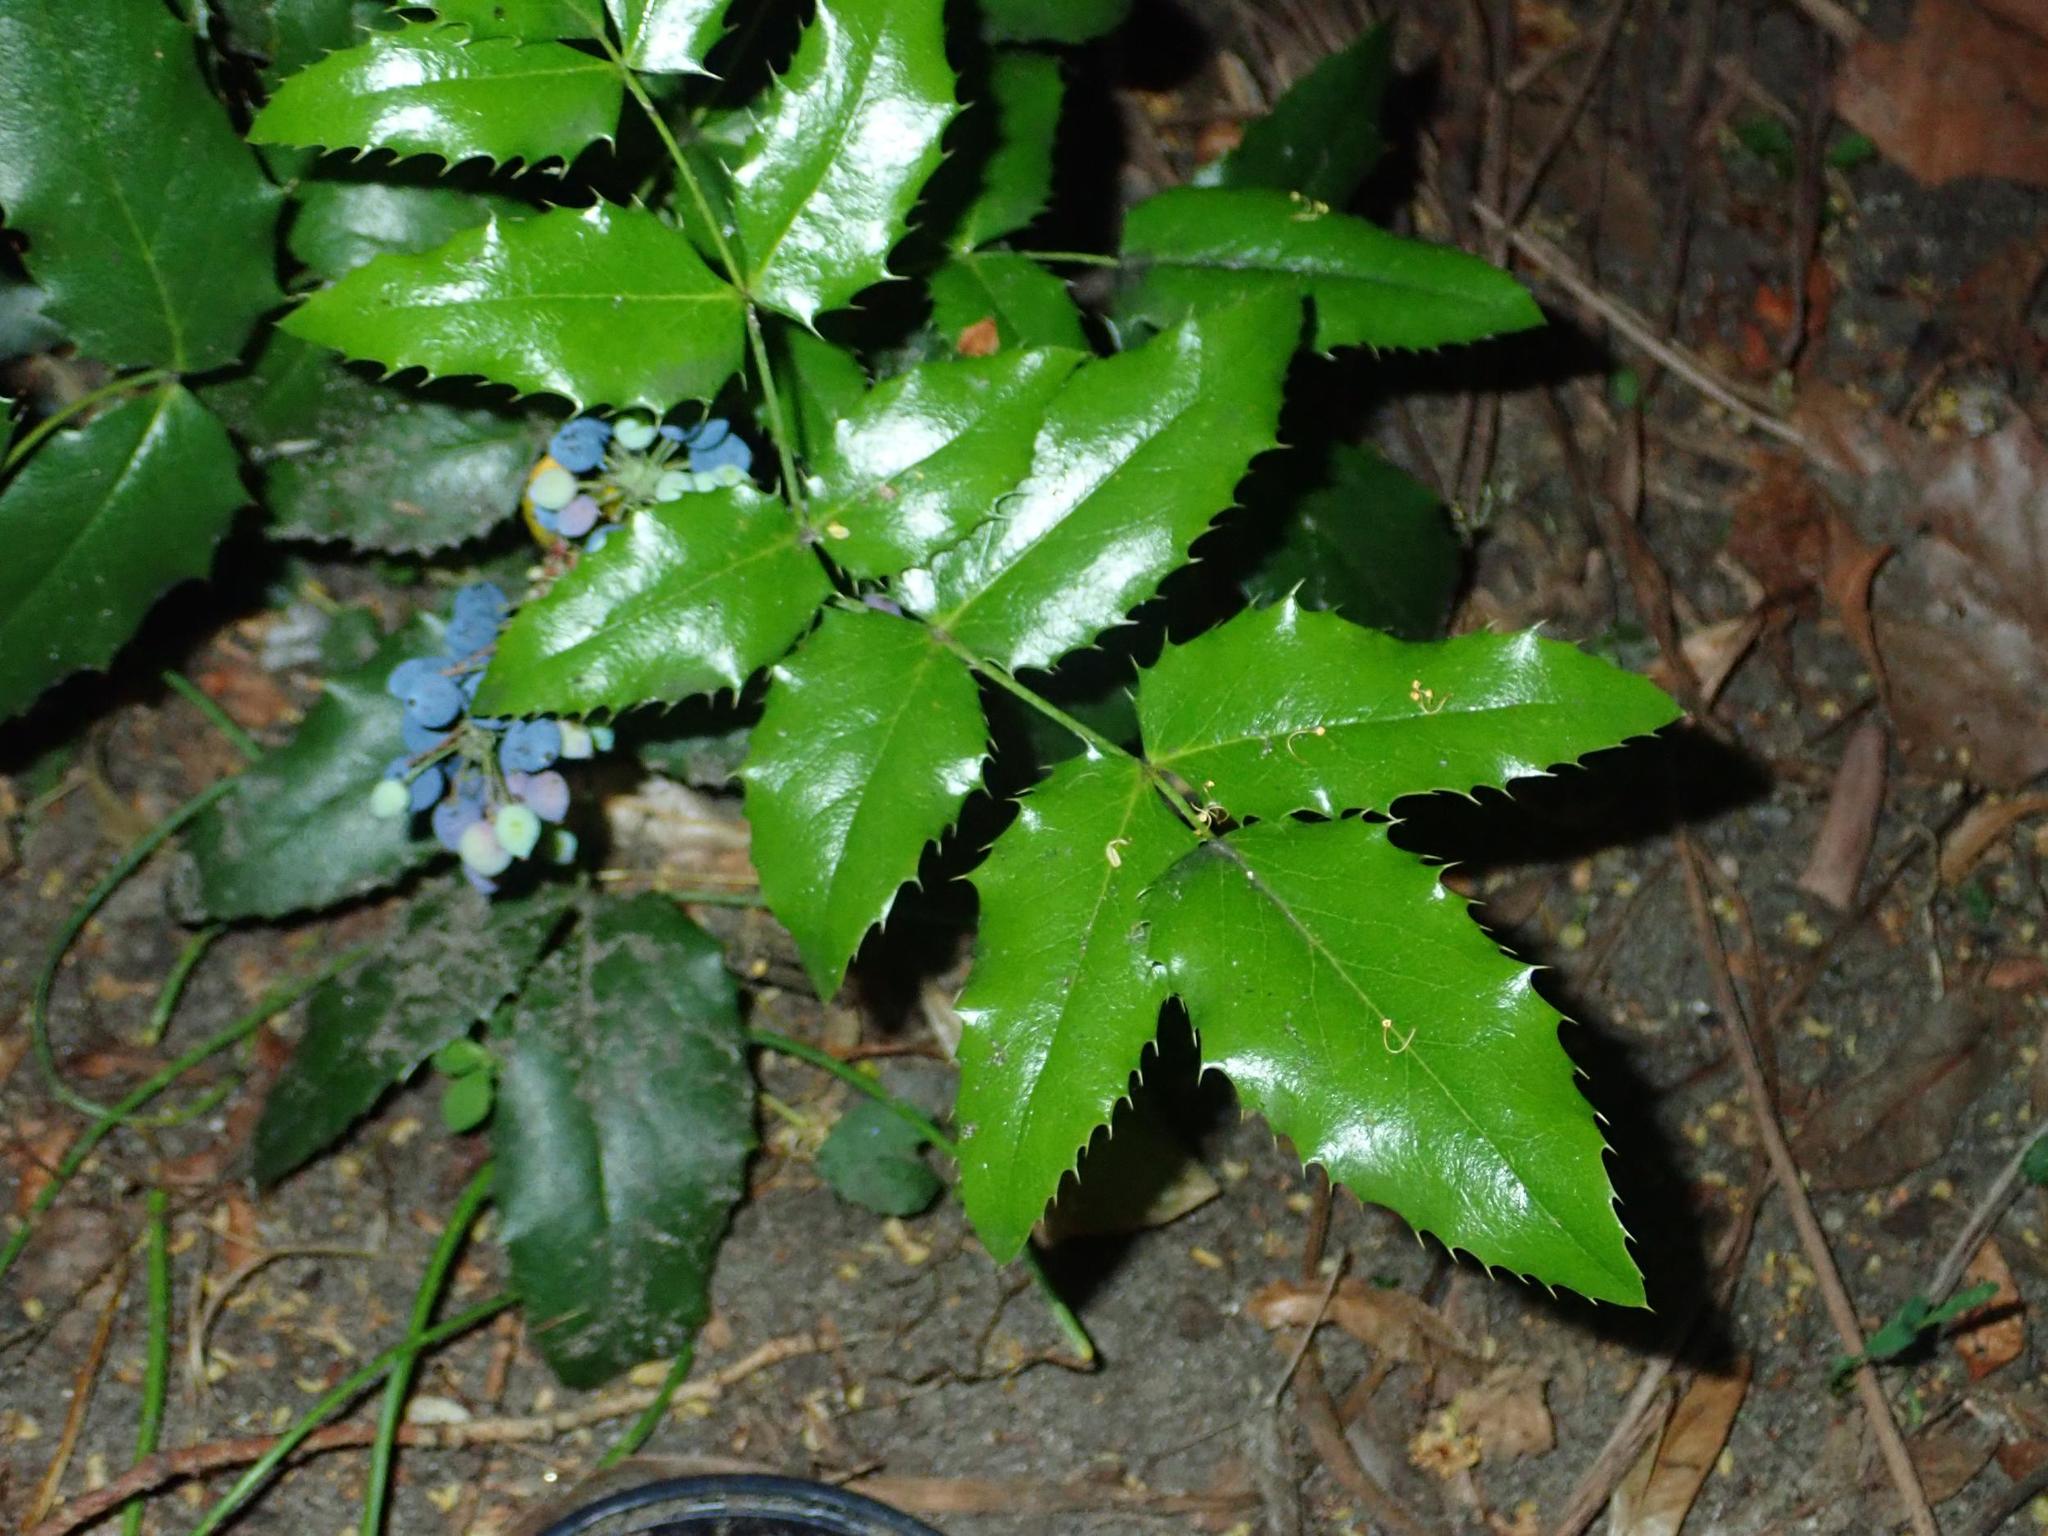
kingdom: Plantae
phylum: Tracheophyta
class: Magnoliopsida
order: Ranunculales
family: Berberidaceae
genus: Mahonia
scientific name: Mahonia aquifolium
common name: Oregon-grape
